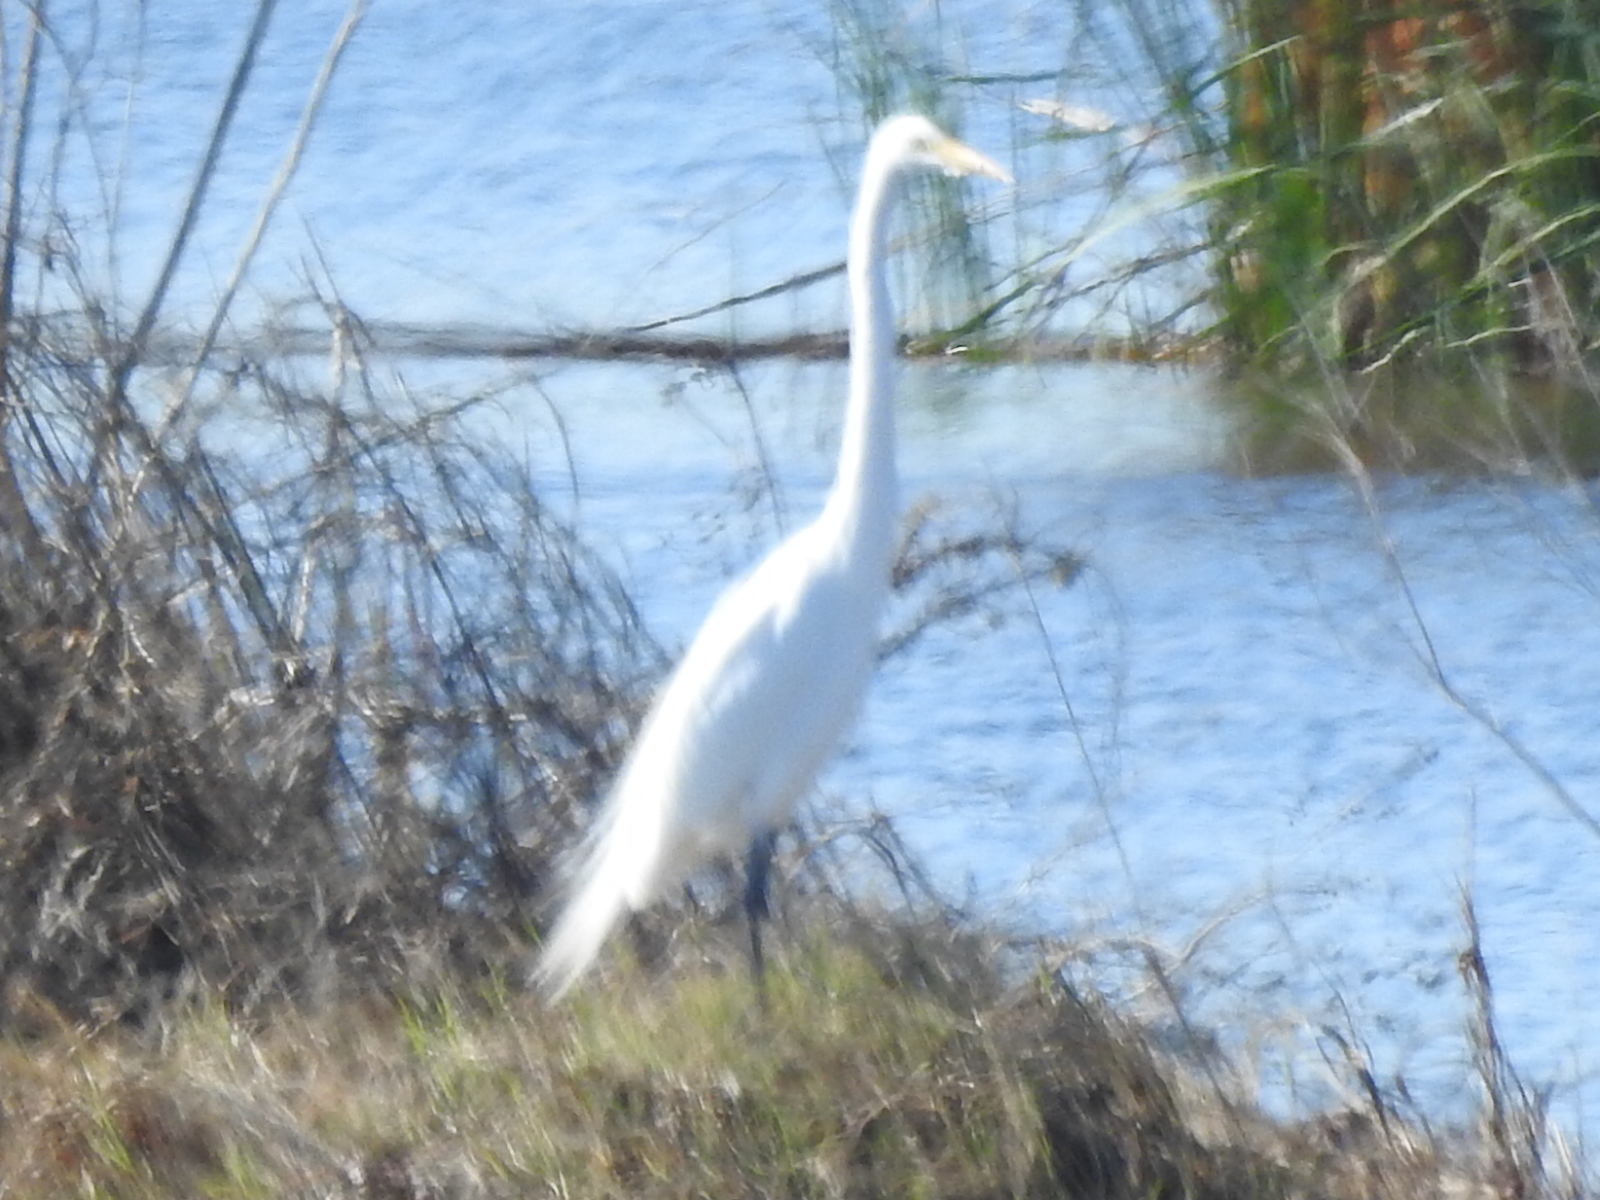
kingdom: Animalia
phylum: Chordata
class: Aves
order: Pelecaniformes
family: Ardeidae
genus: Ardea
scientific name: Ardea alba
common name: Great egret
